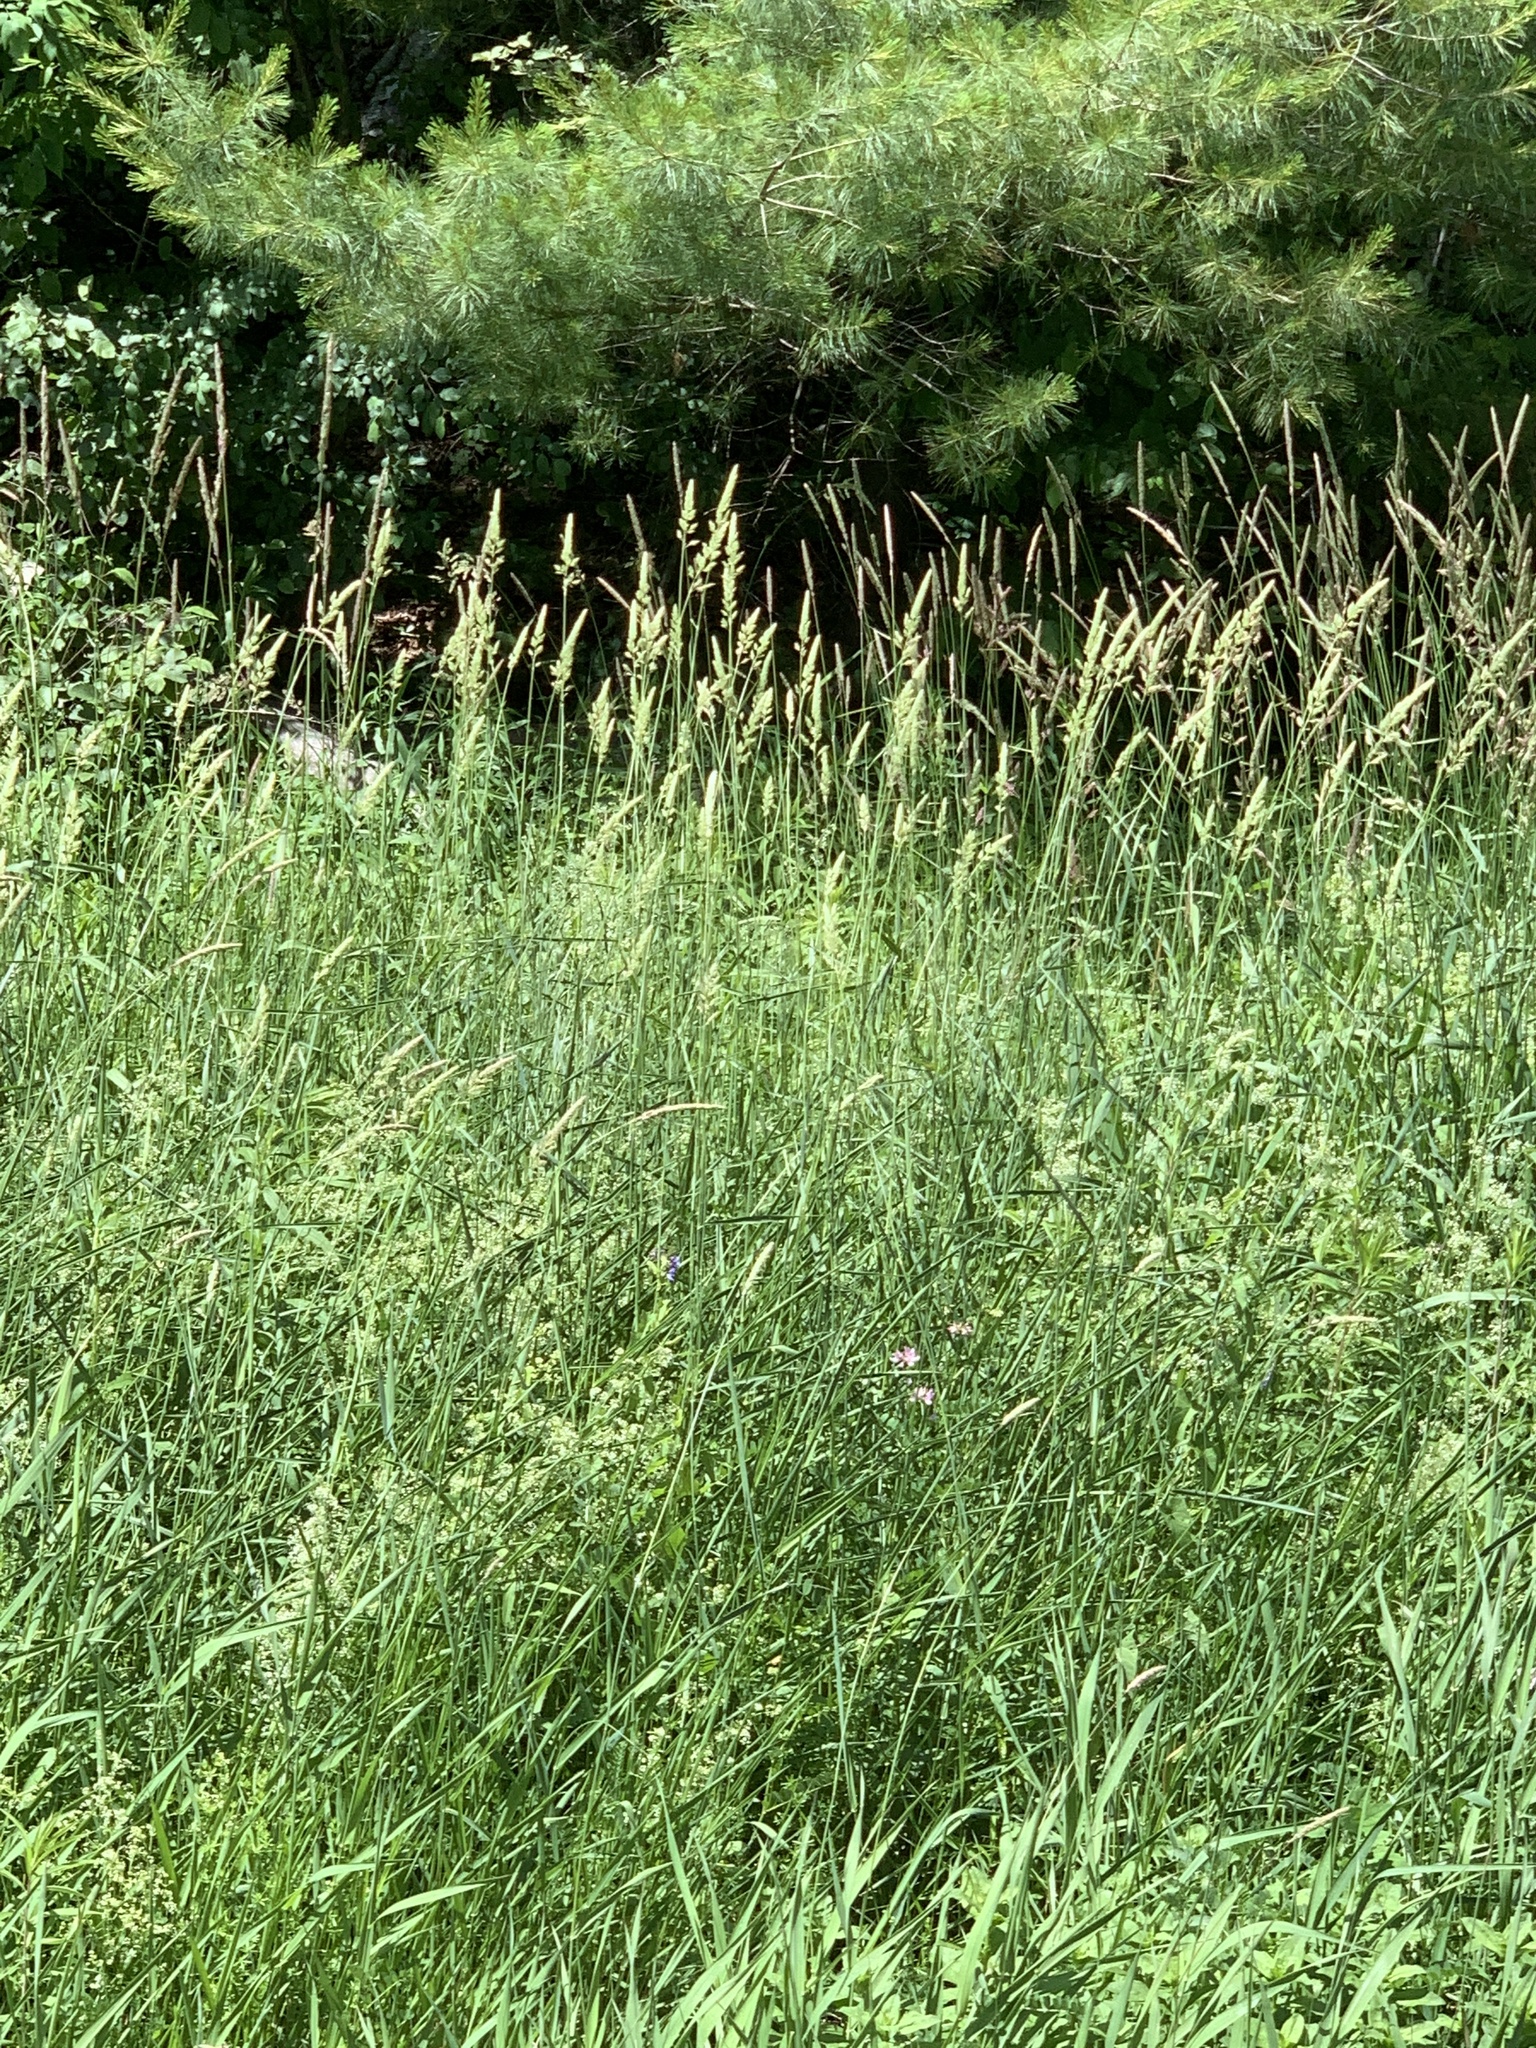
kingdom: Plantae
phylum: Tracheophyta
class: Liliopsida
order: Poales
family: Poaceae
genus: Phalaris
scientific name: Phalaris arundinacea
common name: Reed canary-grass
